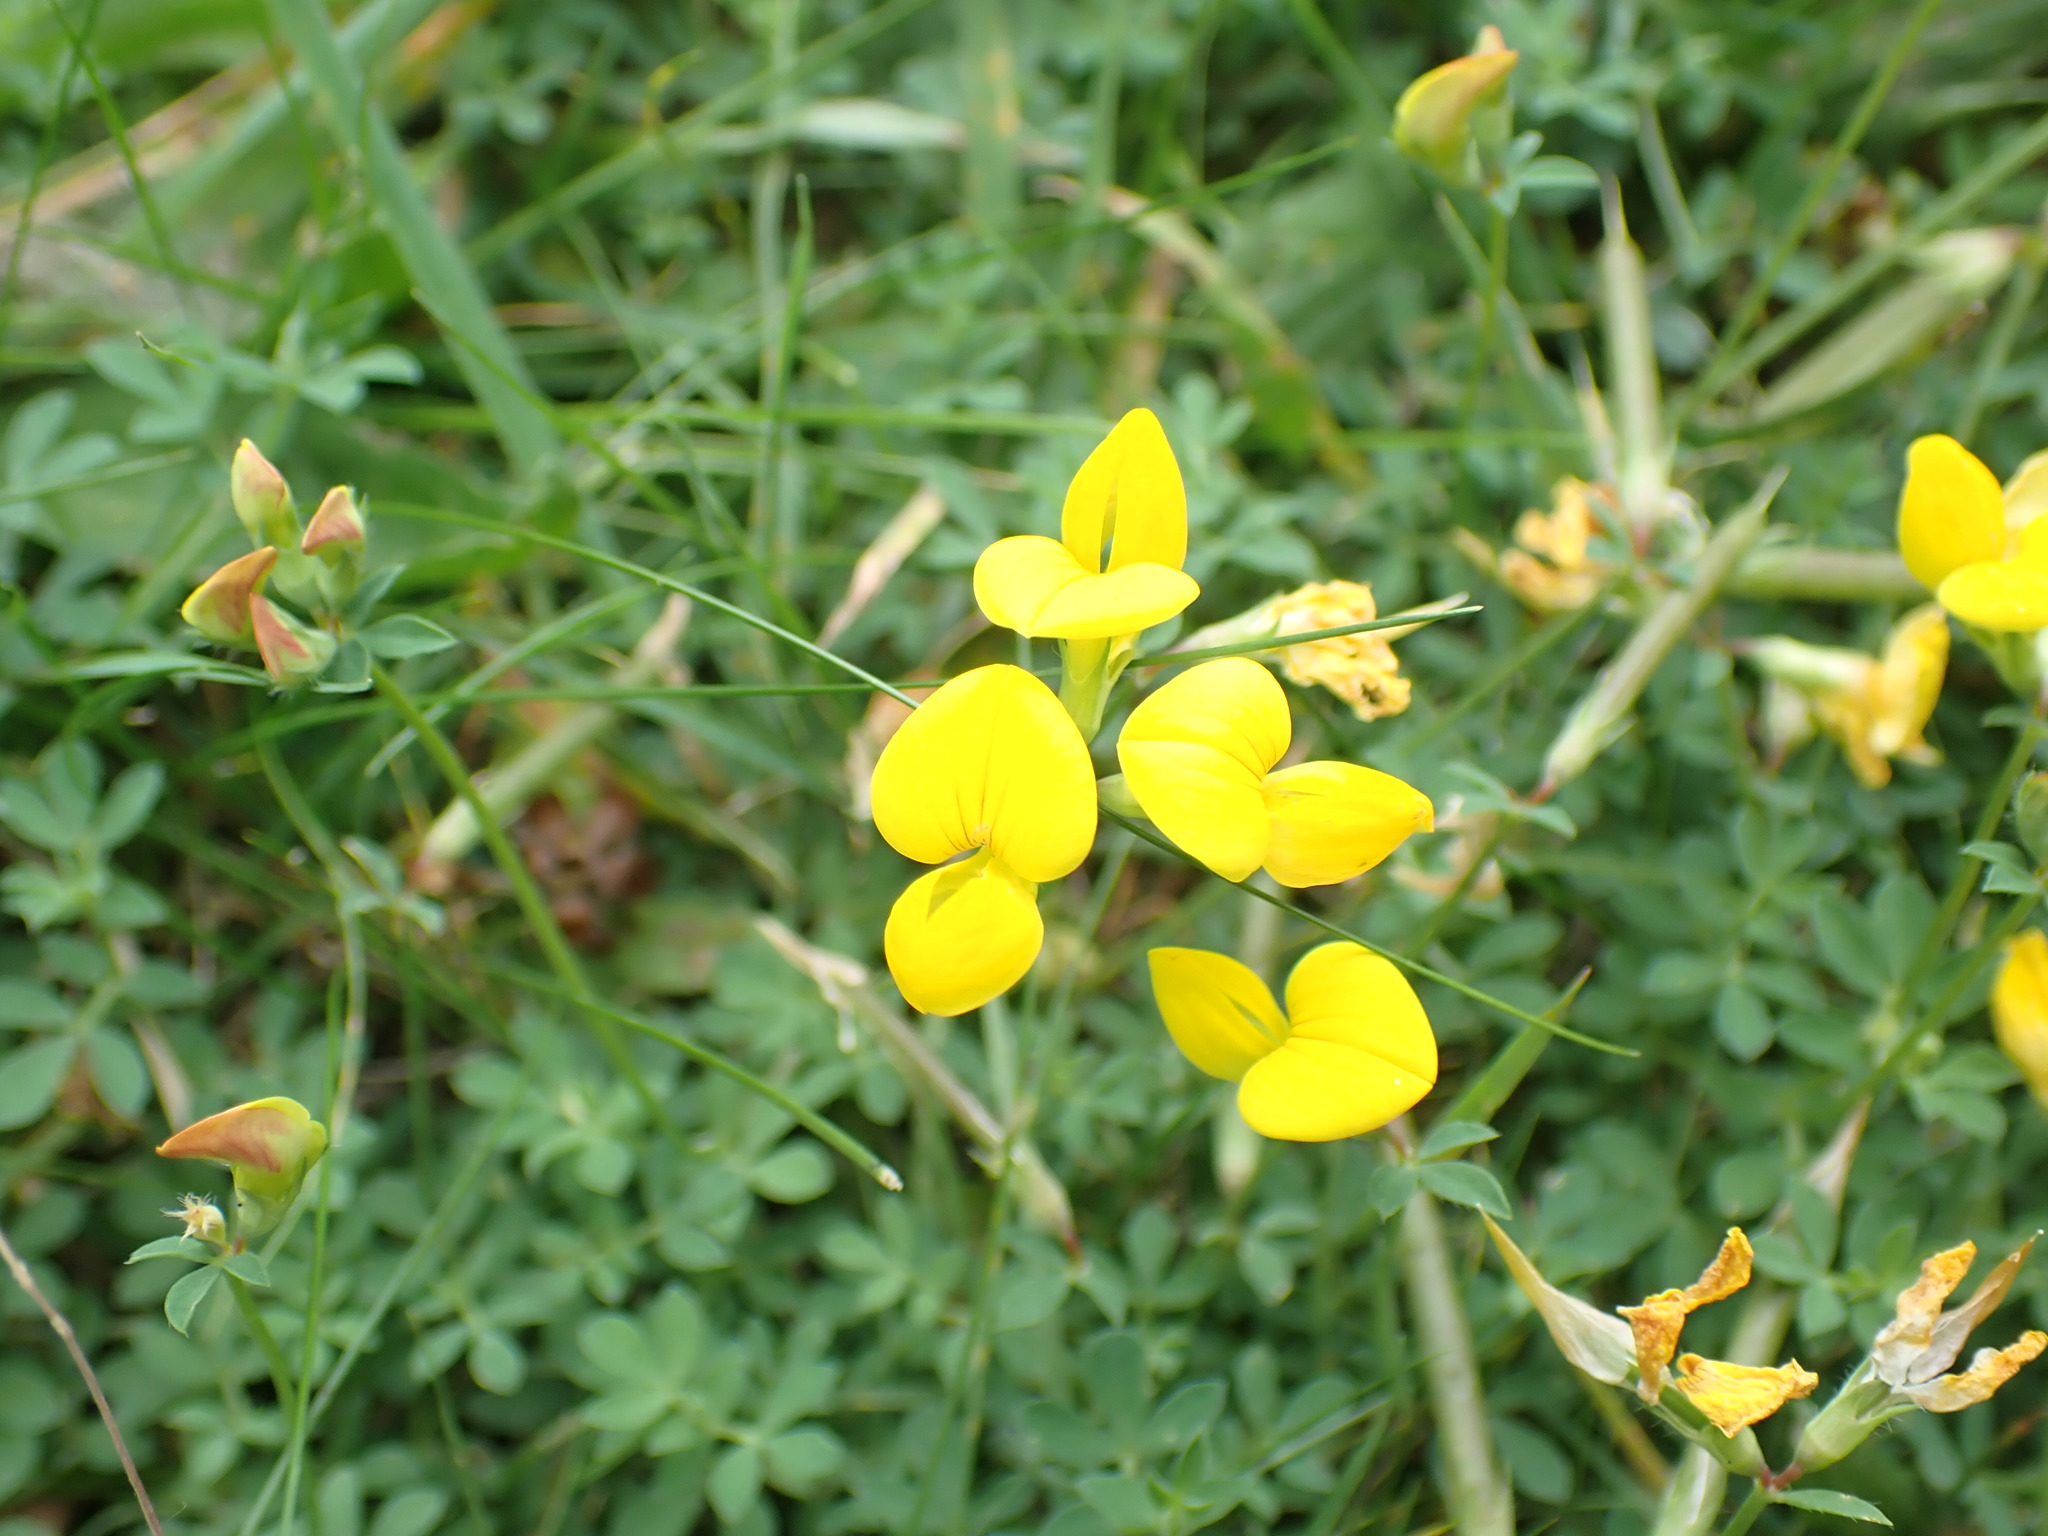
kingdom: Plantae
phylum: Tracheophyta
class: Magnoliopsida
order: Fabales
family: Fabaceae
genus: Lotus
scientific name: Lotus corniculatus
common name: Common bird's-foot-trefoil
